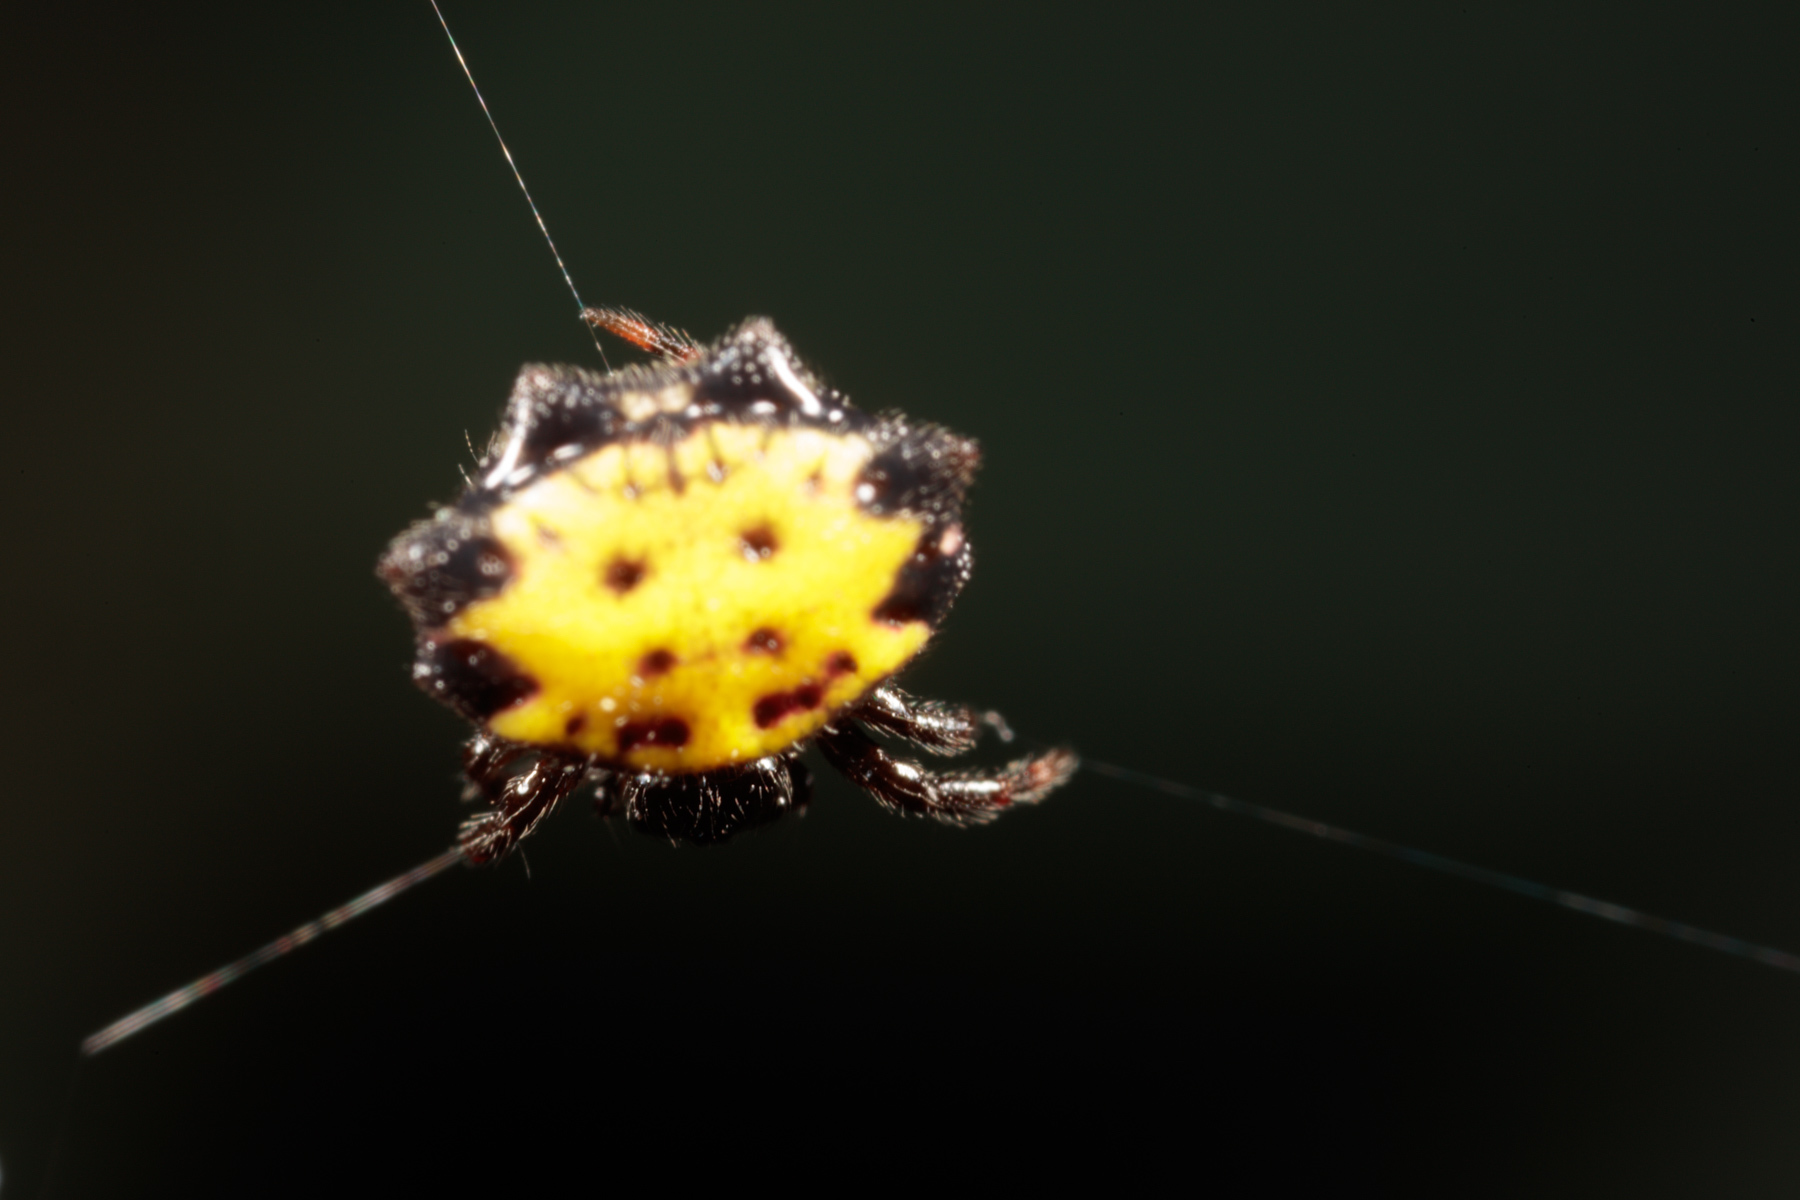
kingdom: Animalia
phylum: Arthropoda
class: Arachnida
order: Araneae
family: Araneidae
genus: Gasteracantha
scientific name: Gasteracantha cancriformis
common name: Orb weavers
